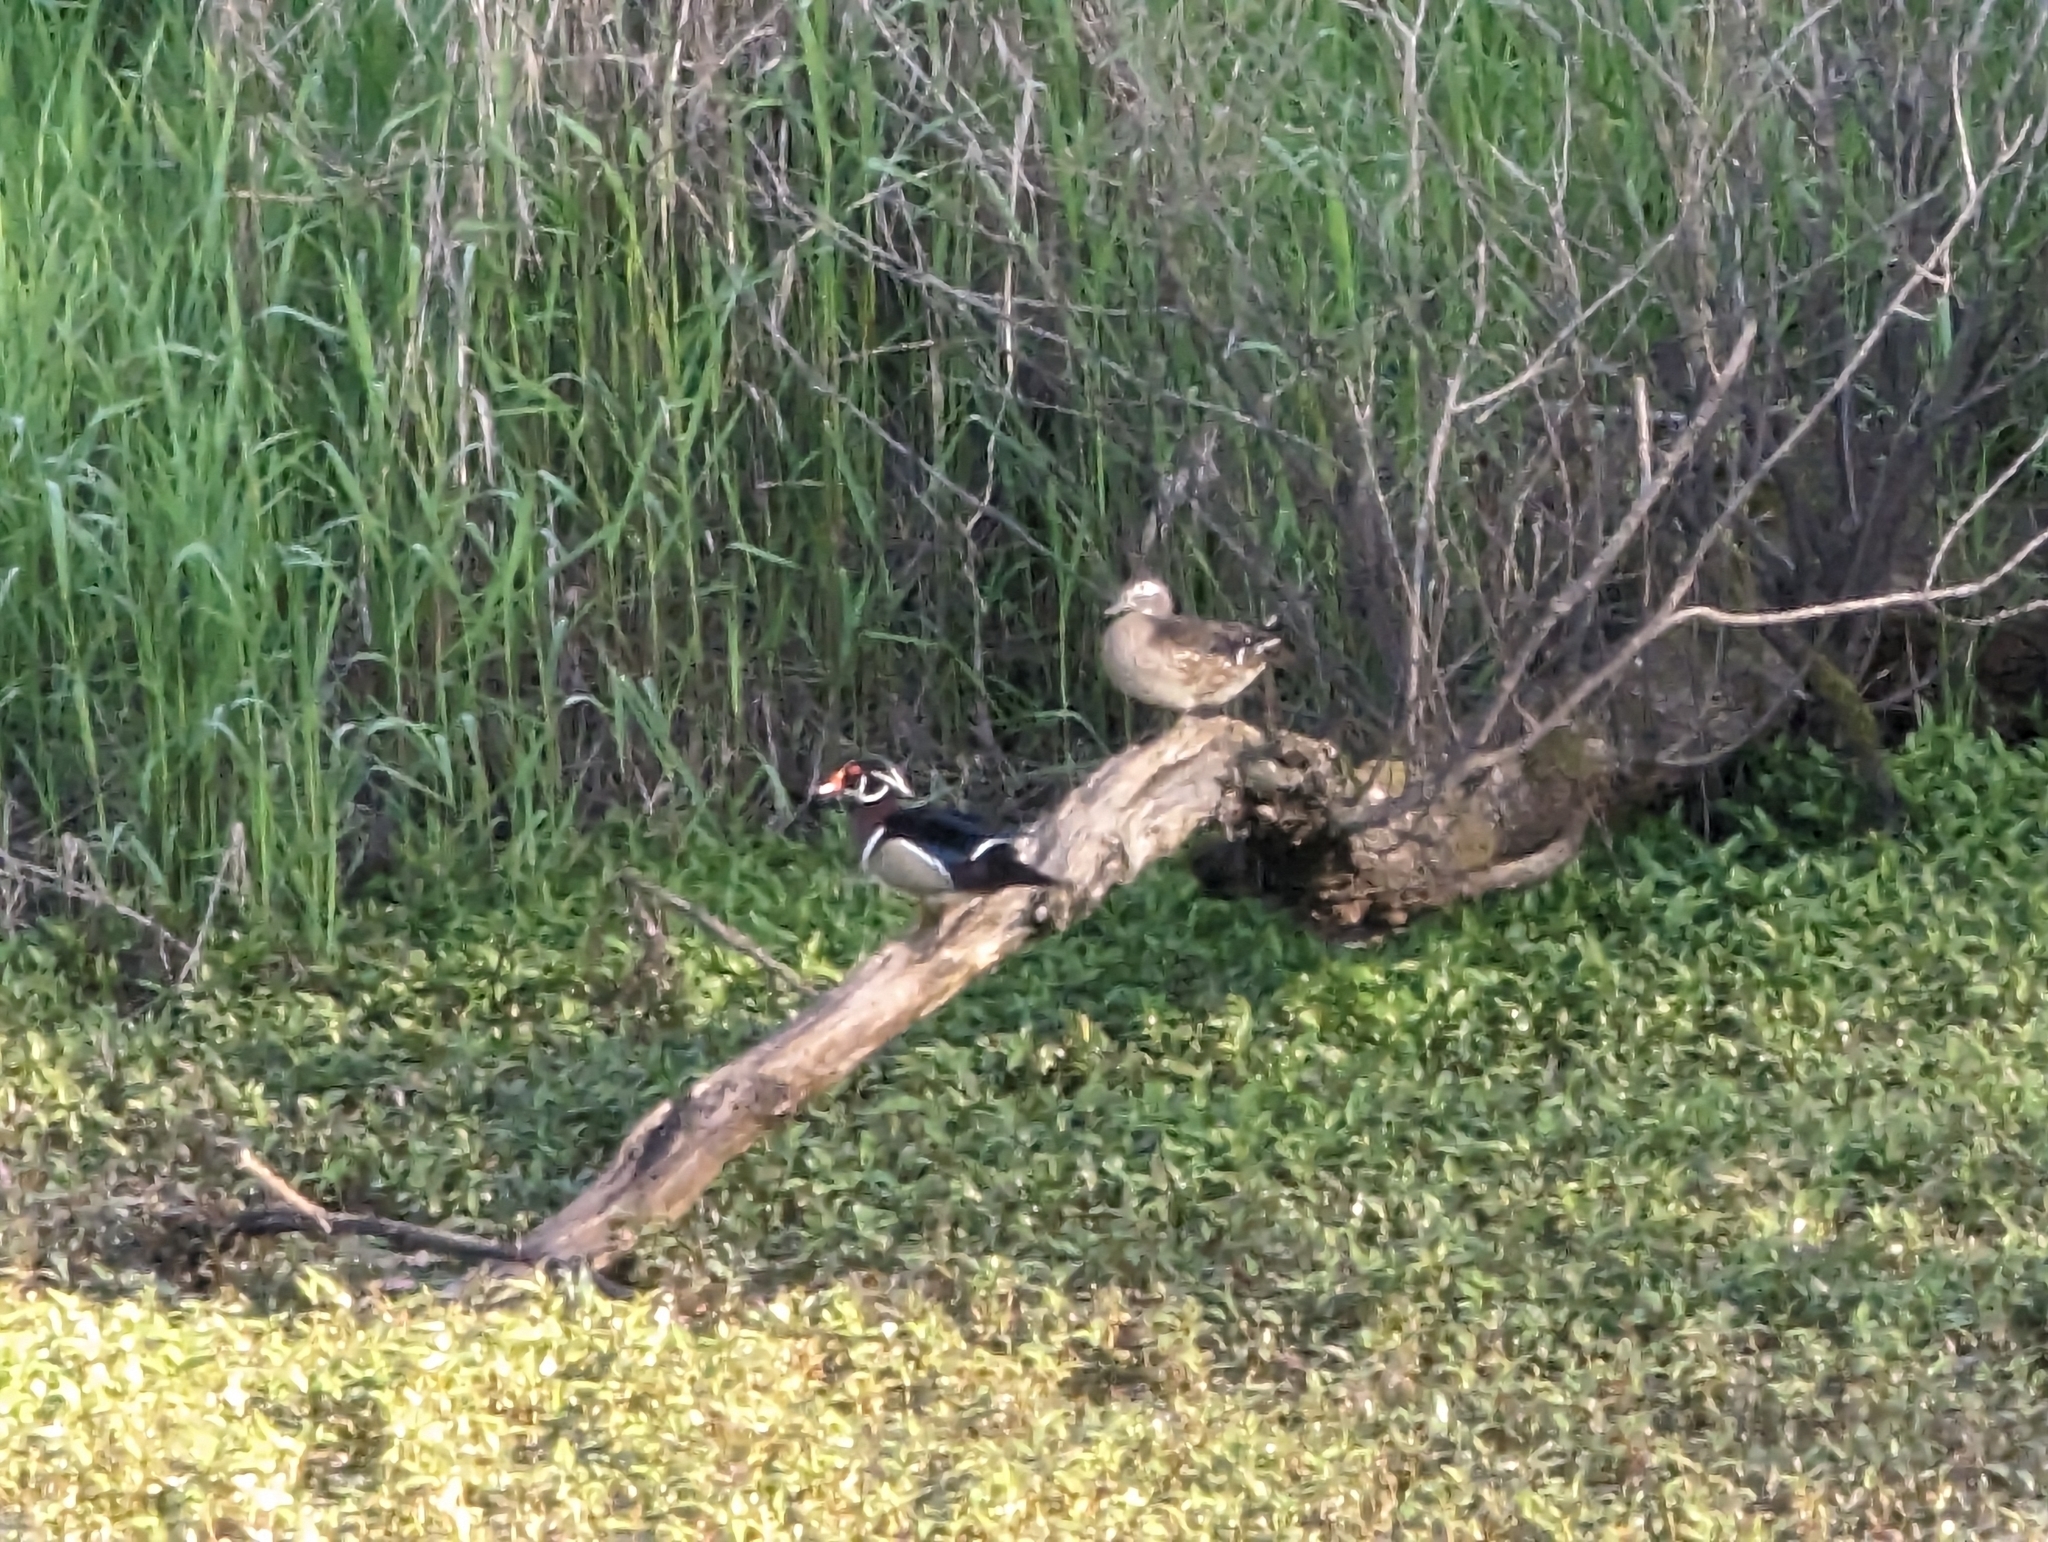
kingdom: Animalia
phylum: Chordata
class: Aves
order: Anseriformes
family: Anatidae
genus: Aix
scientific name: Aix sponsa
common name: Wood duck
